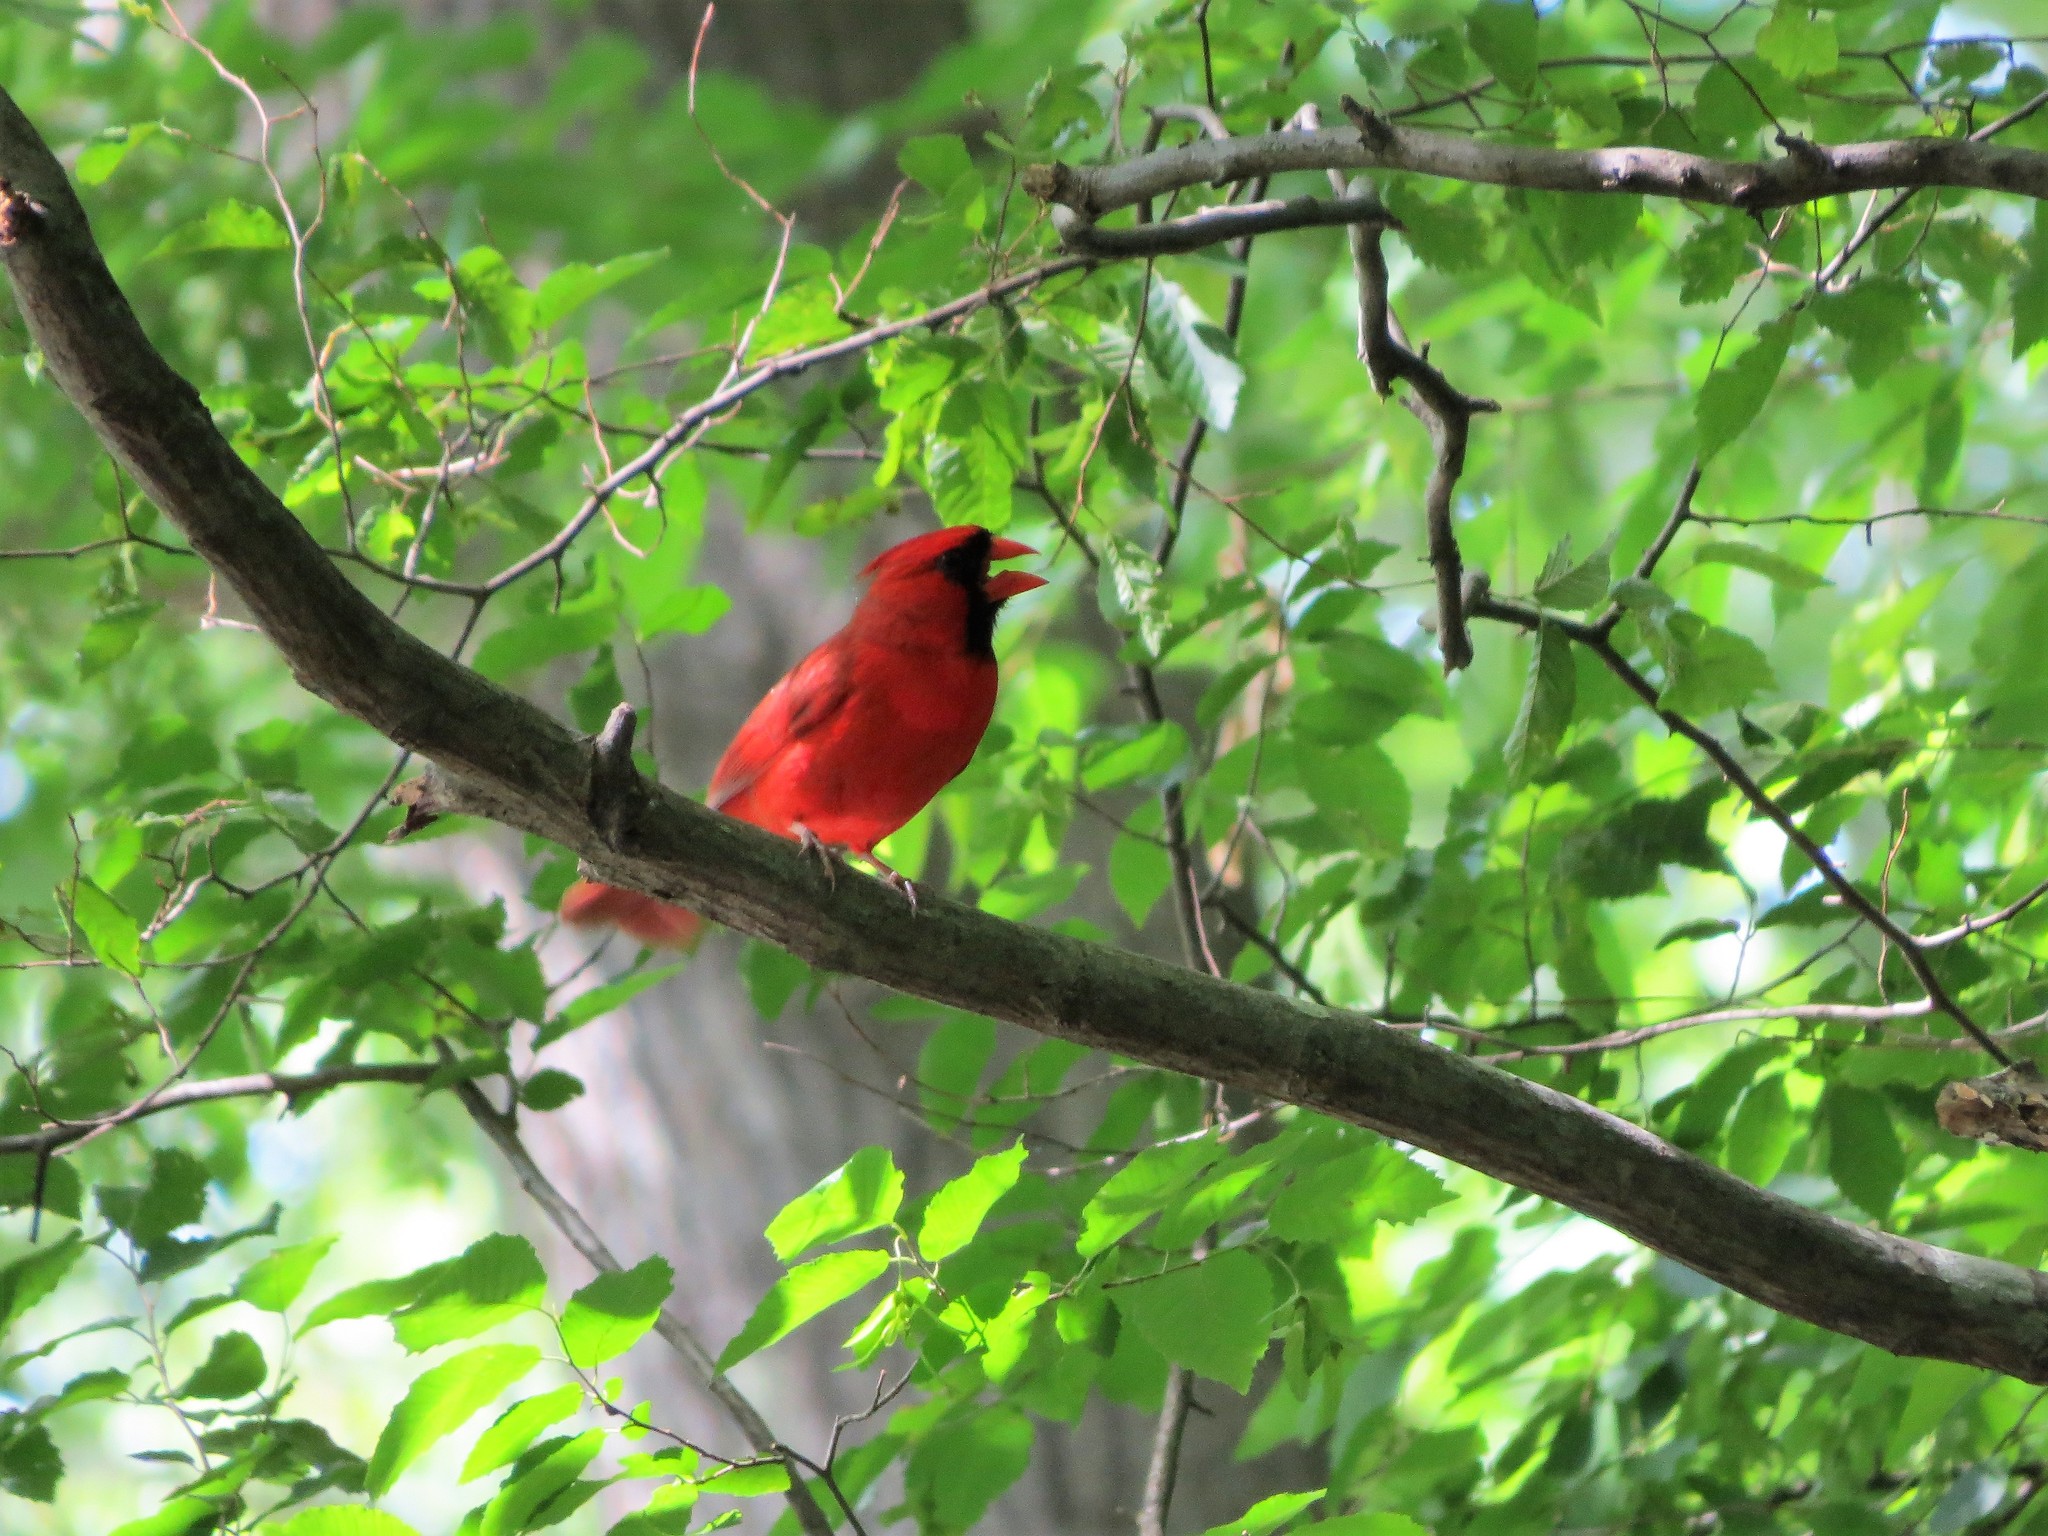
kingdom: Animalia
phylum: Chordata
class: Aves
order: Passeriformes
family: Cardinalidae
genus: Cardinalis
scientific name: Cardinalis cardinalis
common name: Northern cardinal
